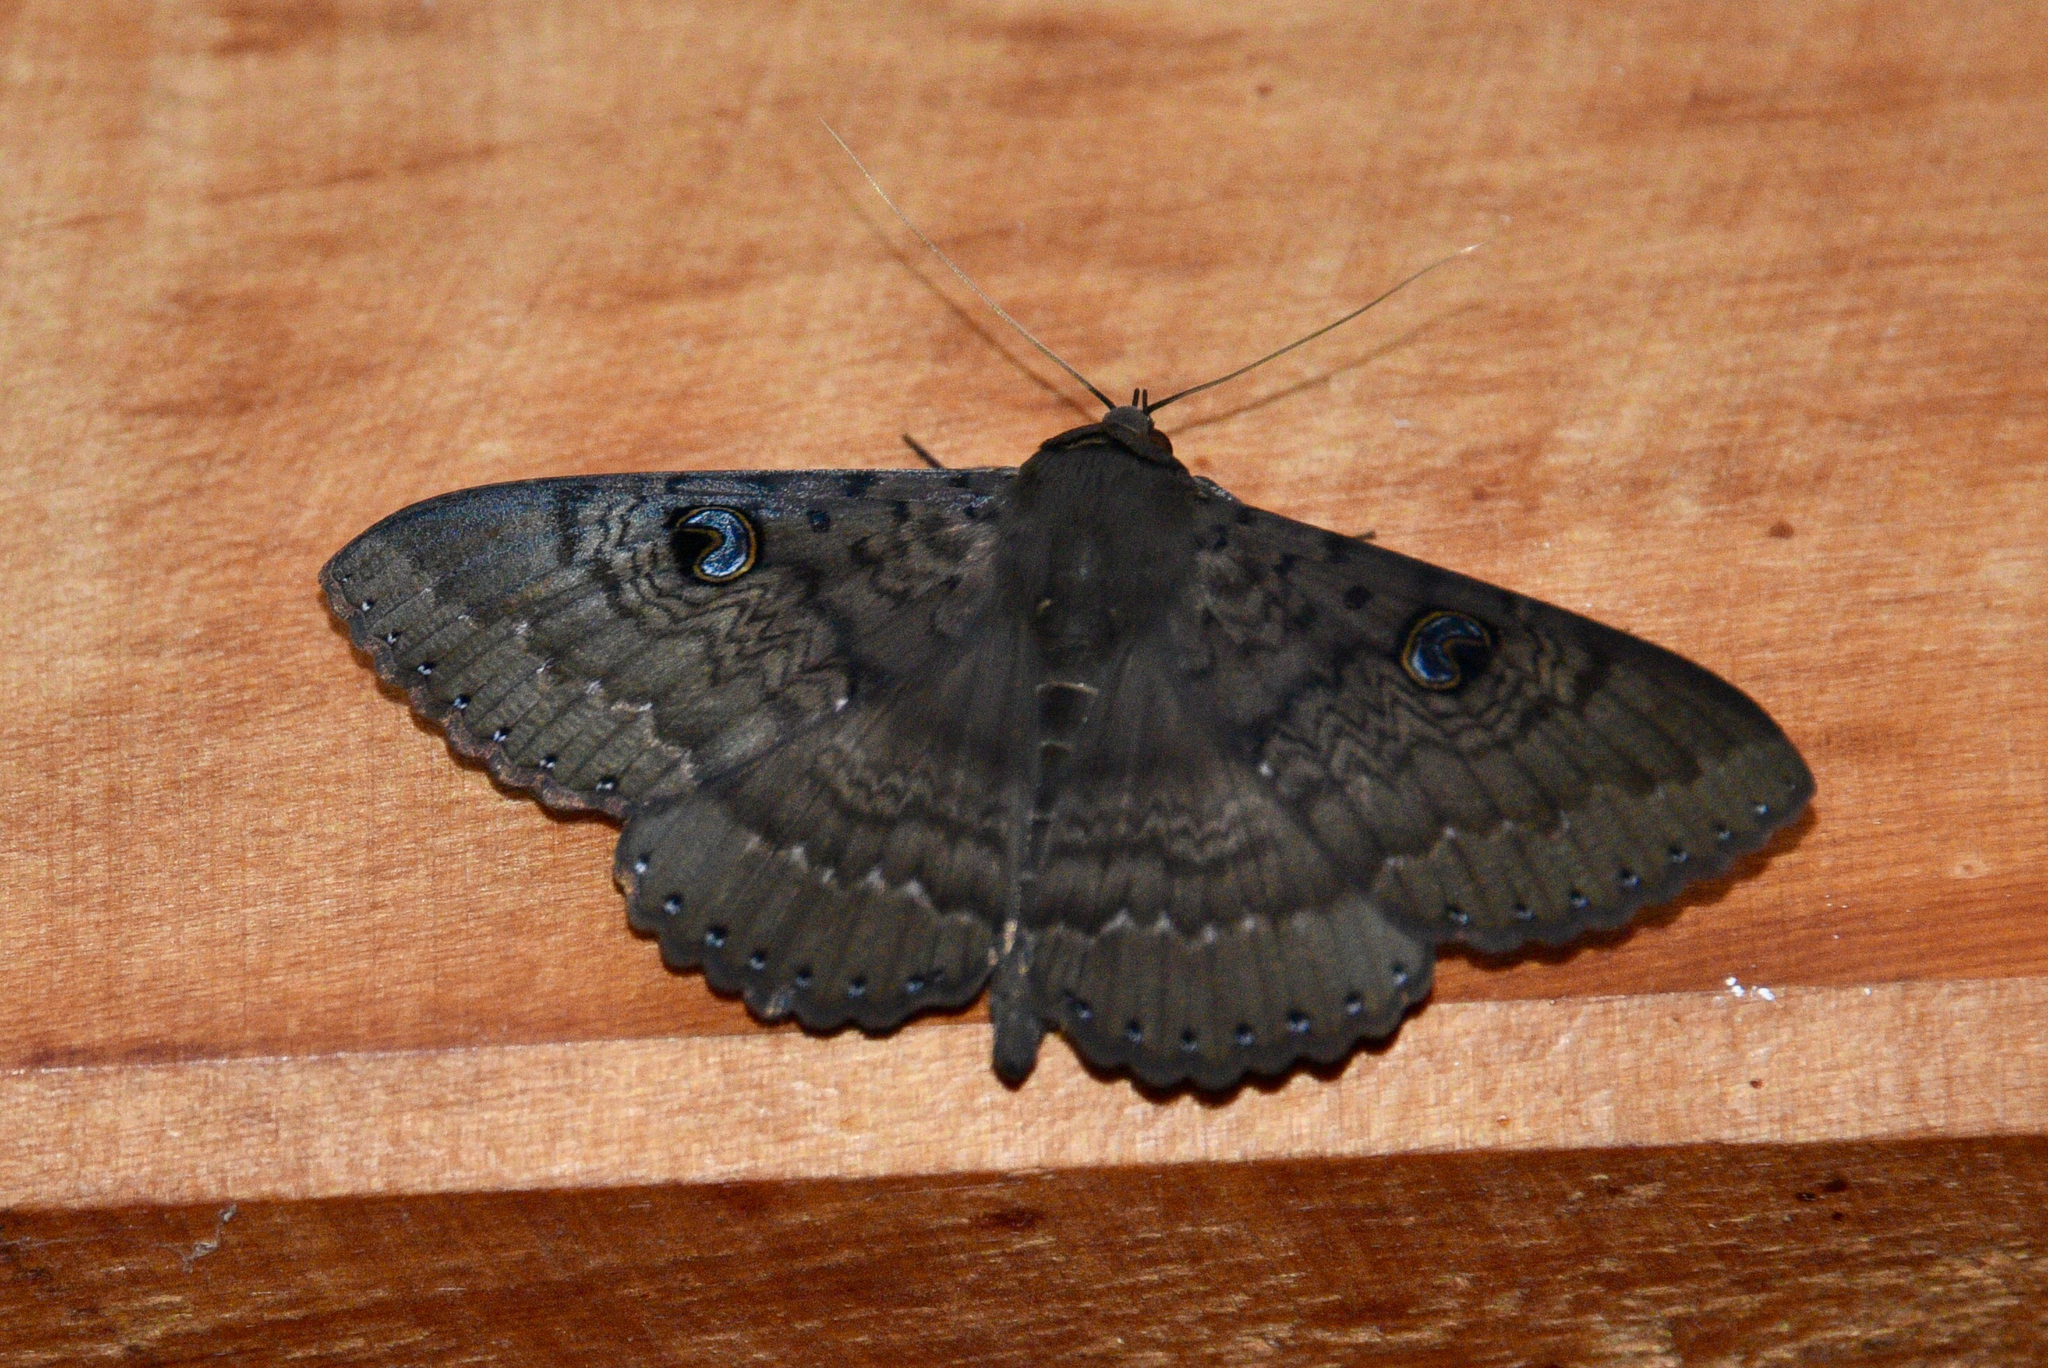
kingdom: Animalia
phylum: Arthropoda
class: Insecta
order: Lepidoptera
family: Erebidae
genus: Dasypodia
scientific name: Dasypodia cymatodes
